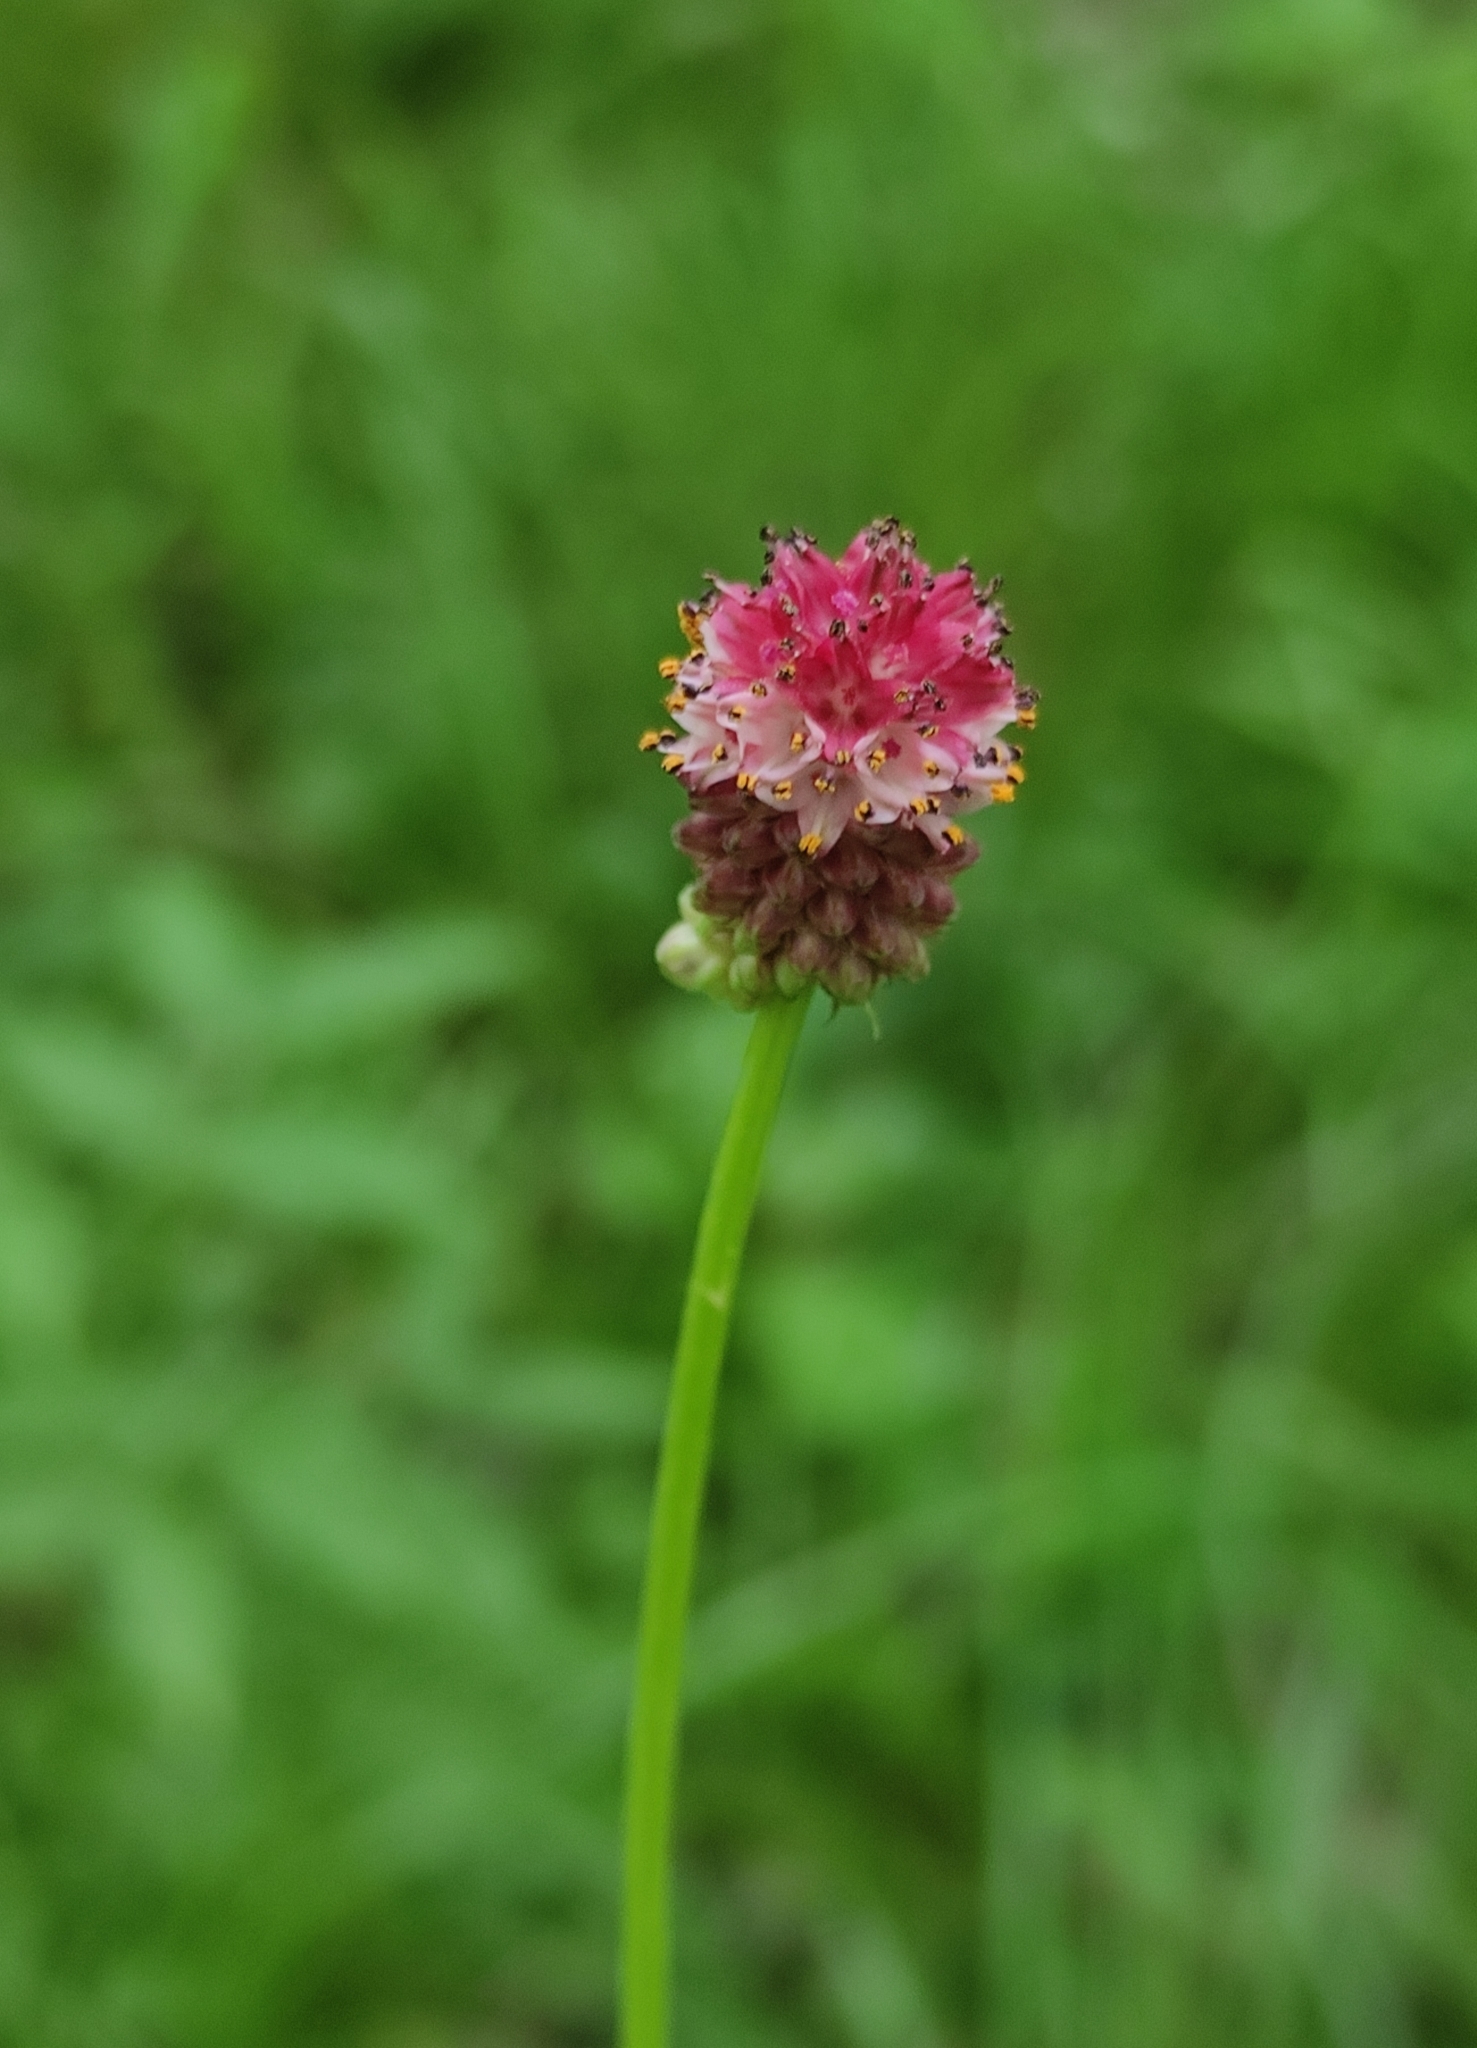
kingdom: Plantae
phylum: Tracheophyta
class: Magnoliopsida
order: Rosales
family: Rosaceae
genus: Sanguisorba
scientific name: Sanguisorba officinalis
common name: Great burnet
